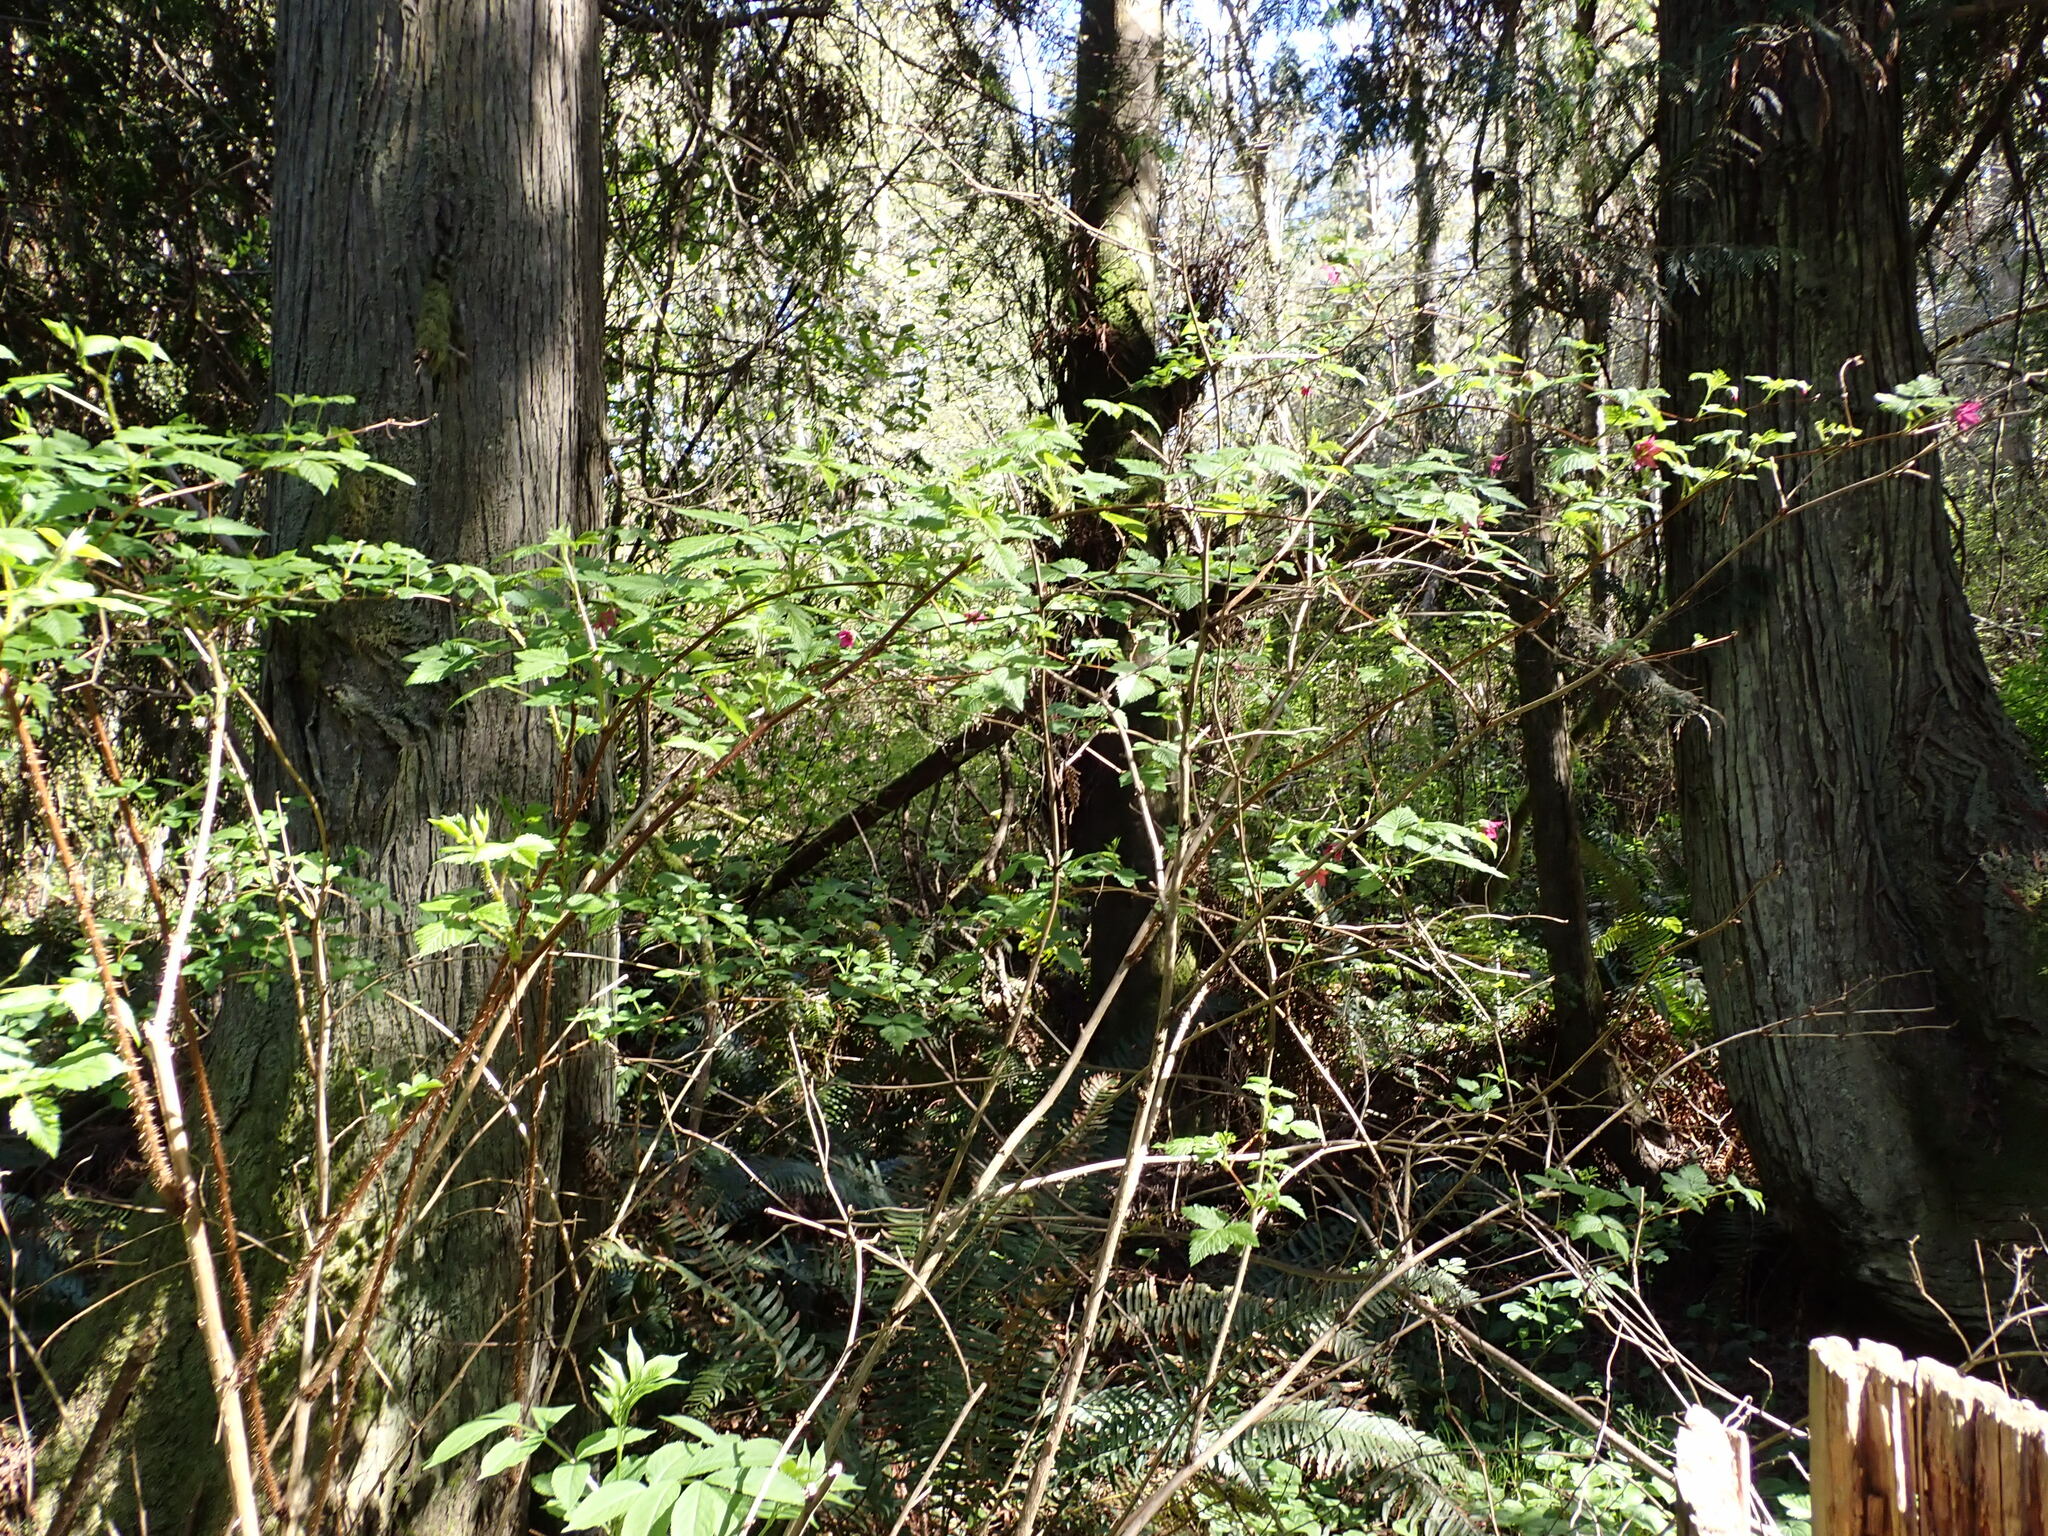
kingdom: Plantae
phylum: Tracheophyta
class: Magnoliopsida
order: Rosales
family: Rosaceae
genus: Rubus
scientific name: Rubus spectabilis
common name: Salmonberry
